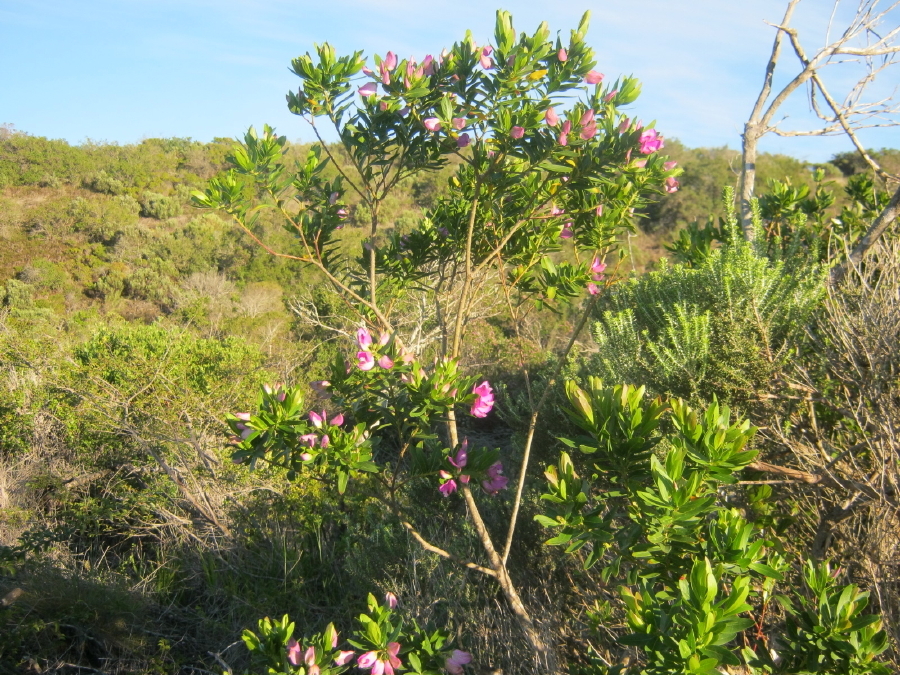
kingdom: Plantae
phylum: Tracheophyta
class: Magnoliopsida
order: Fabales
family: Polygalaceae
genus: Polygala
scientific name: Polygala myrtifolia
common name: Myrtle-leaf milkwort
